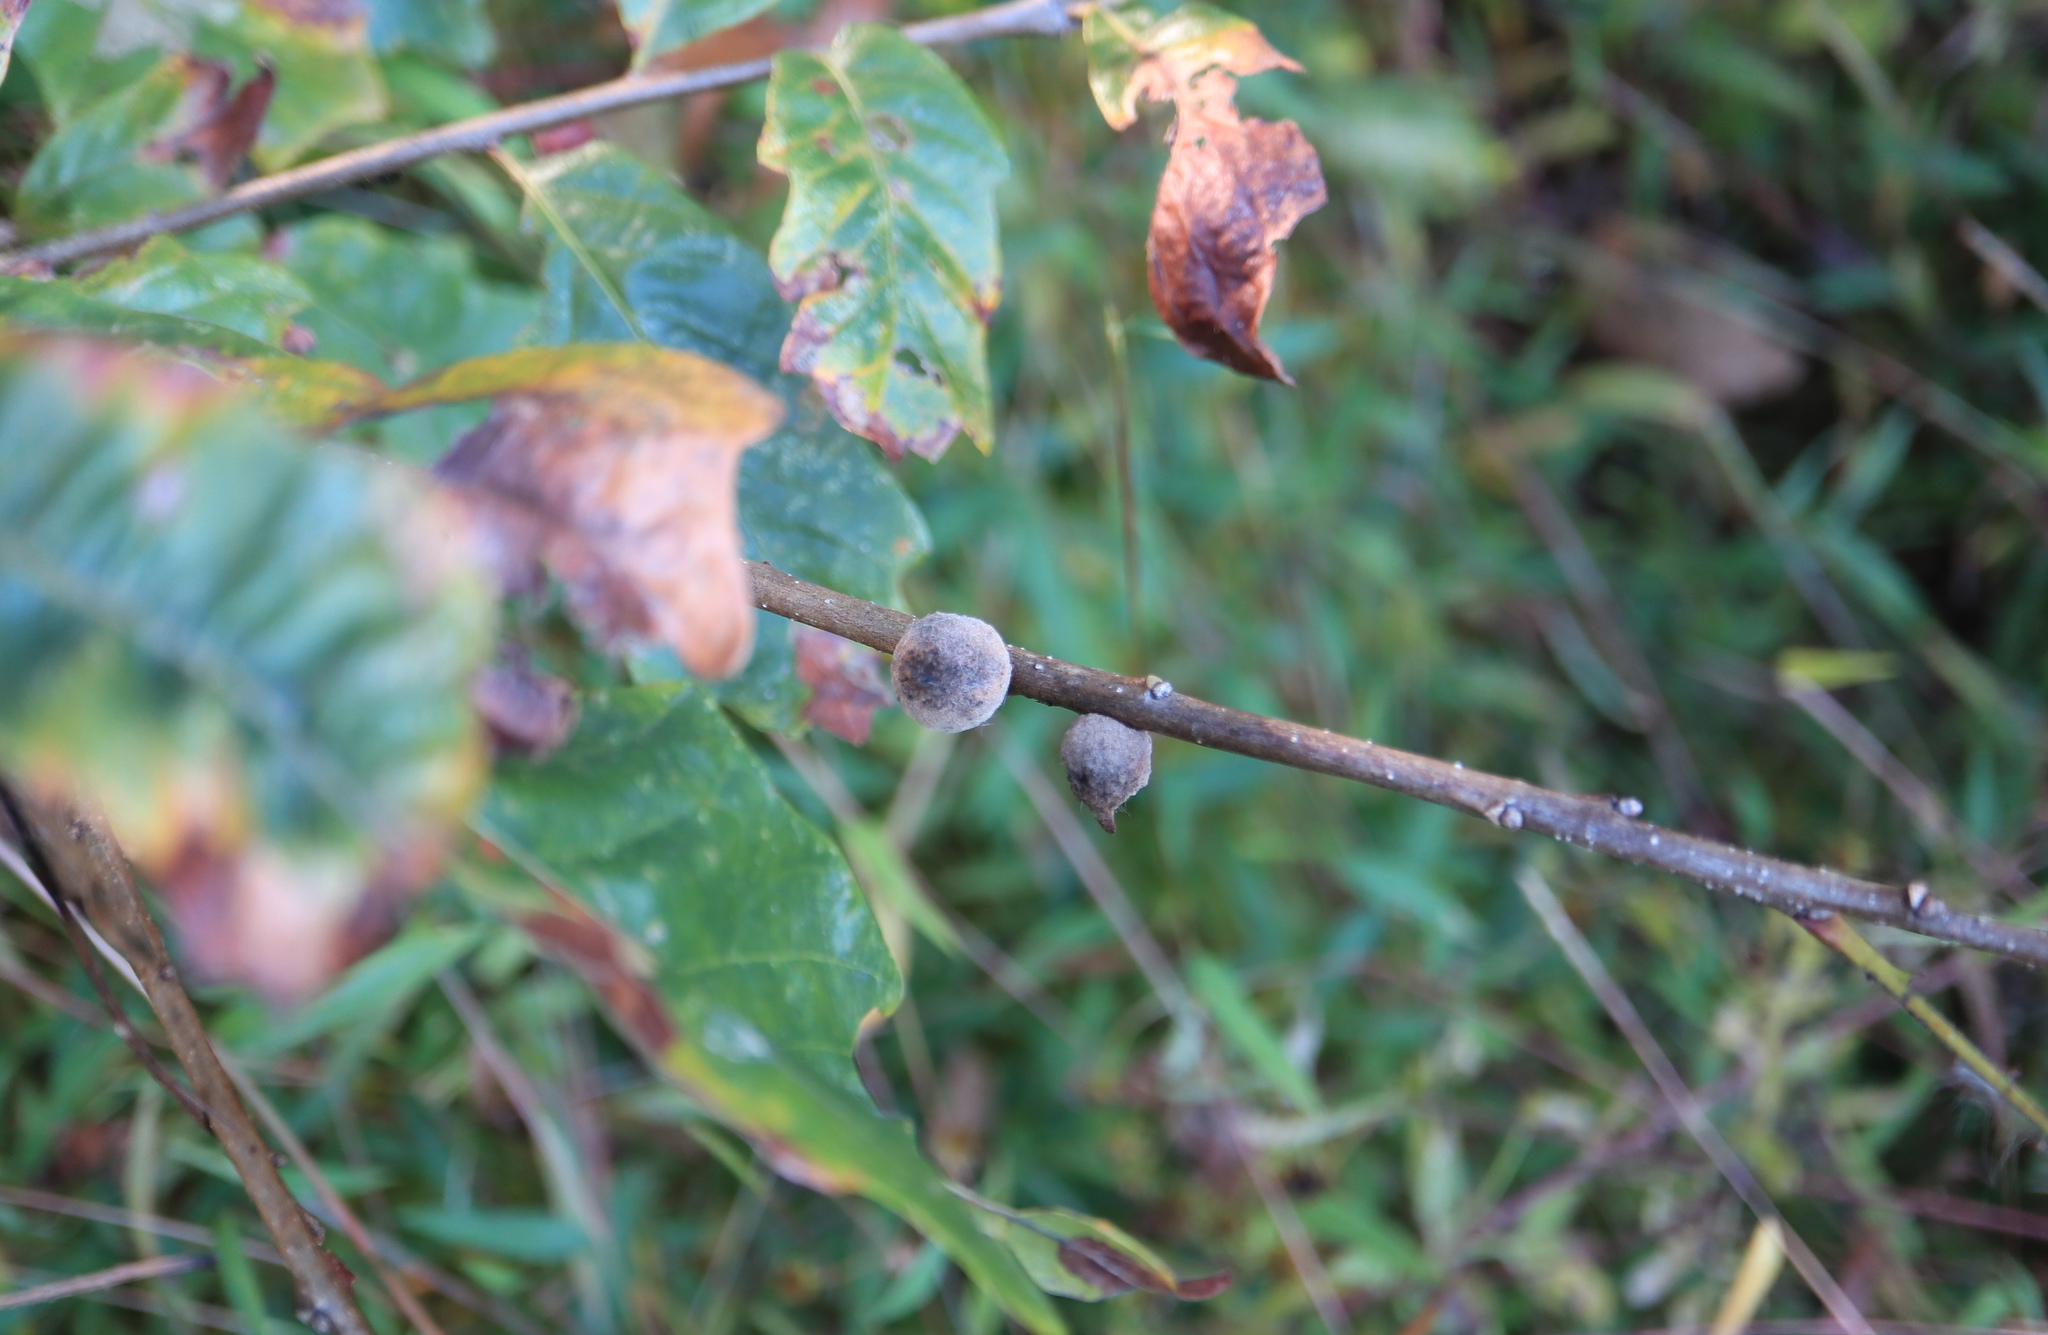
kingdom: Animalia
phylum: Arthropoda
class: Insecta
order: Hymenoptera
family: Cynipidae
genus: Disholcaspis
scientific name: Disholcaspis
